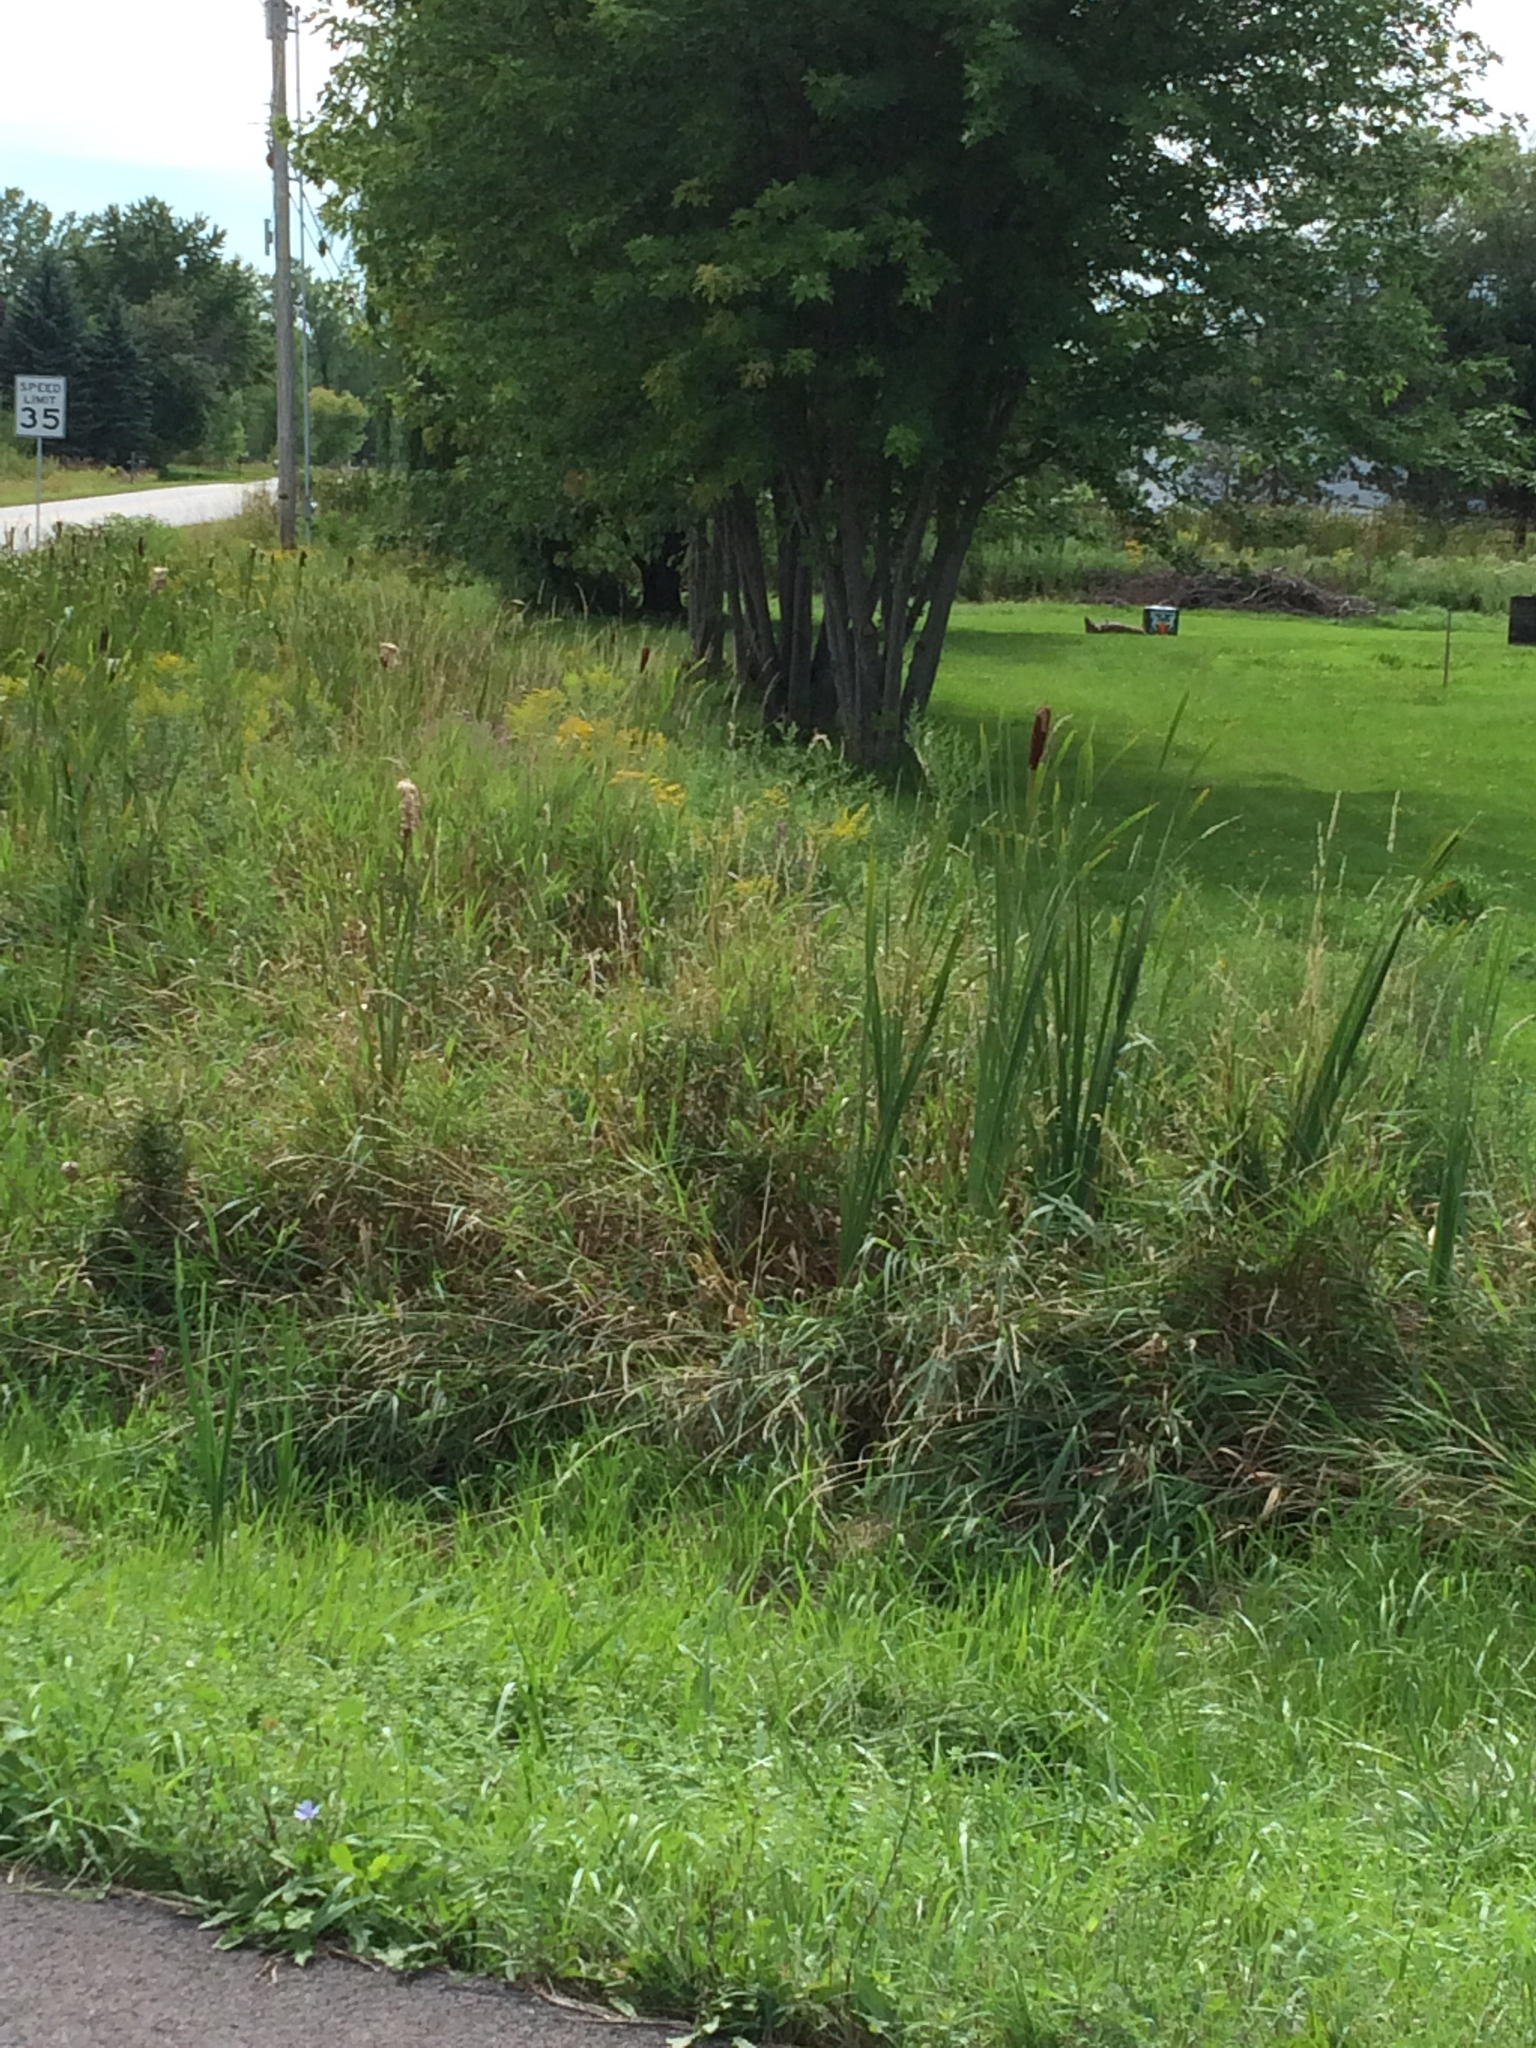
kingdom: Plantae
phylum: Tracheophyta
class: Liliopsida
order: Poales
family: Typhaceae
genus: Typha
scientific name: Typha latifolia
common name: Broadleaf cattail
